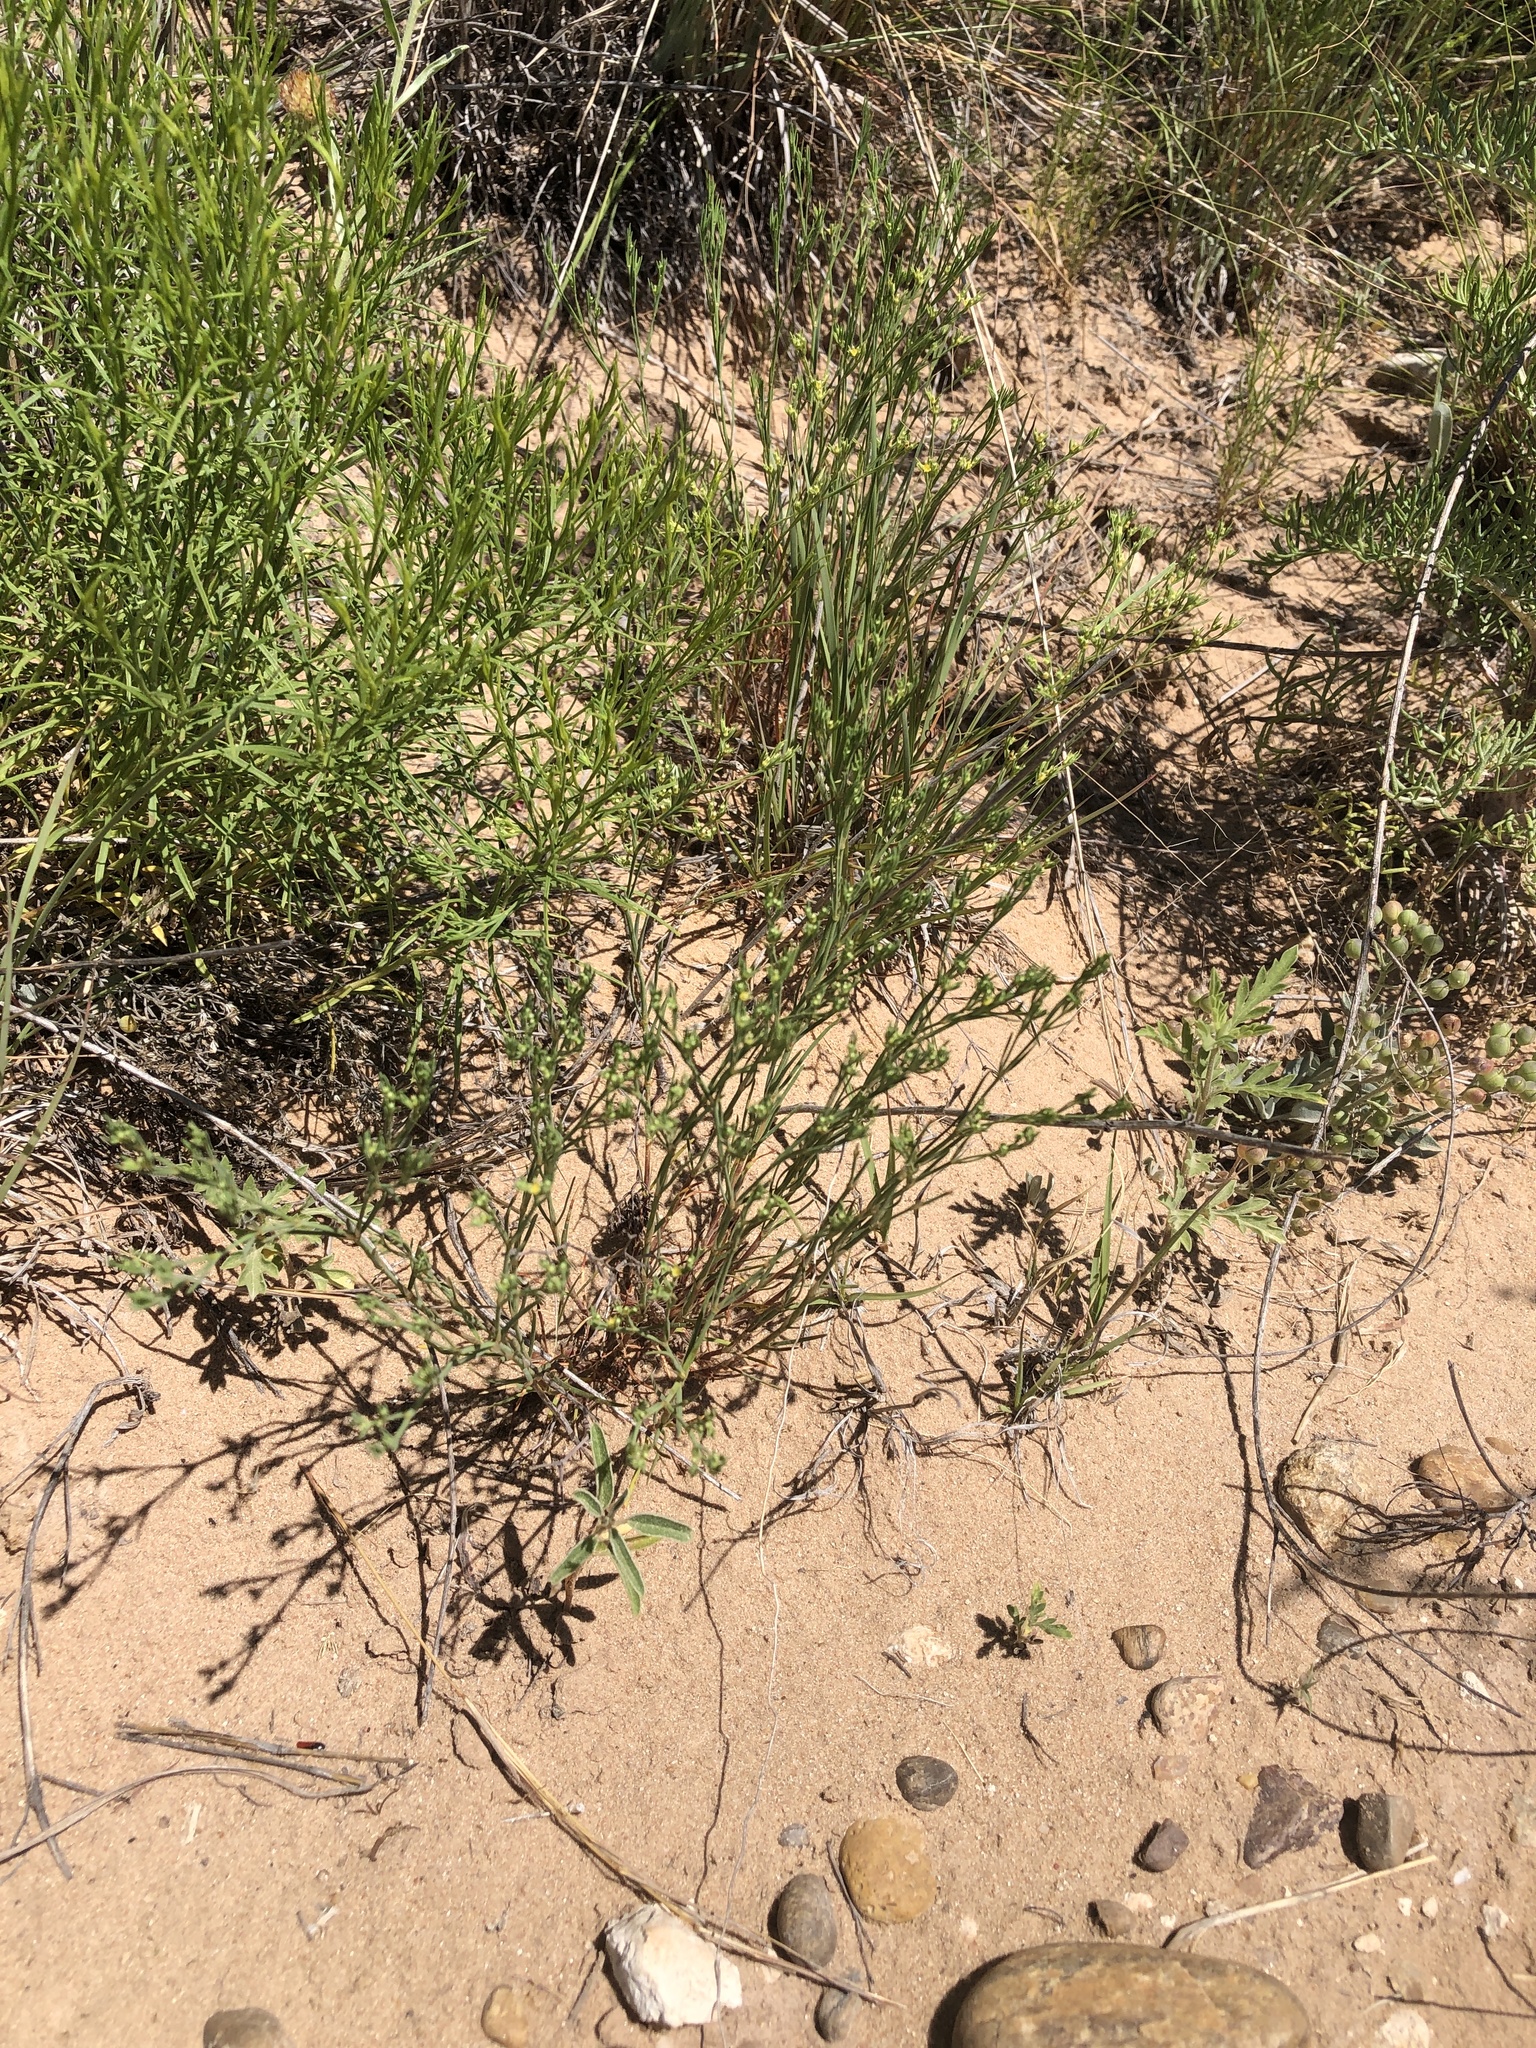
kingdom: Plantae
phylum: Tracheophyta
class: Magnoliopsida
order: Caryophyllales
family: Caryophyllaceae
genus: Paronychia
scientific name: Paronychia jamesii
